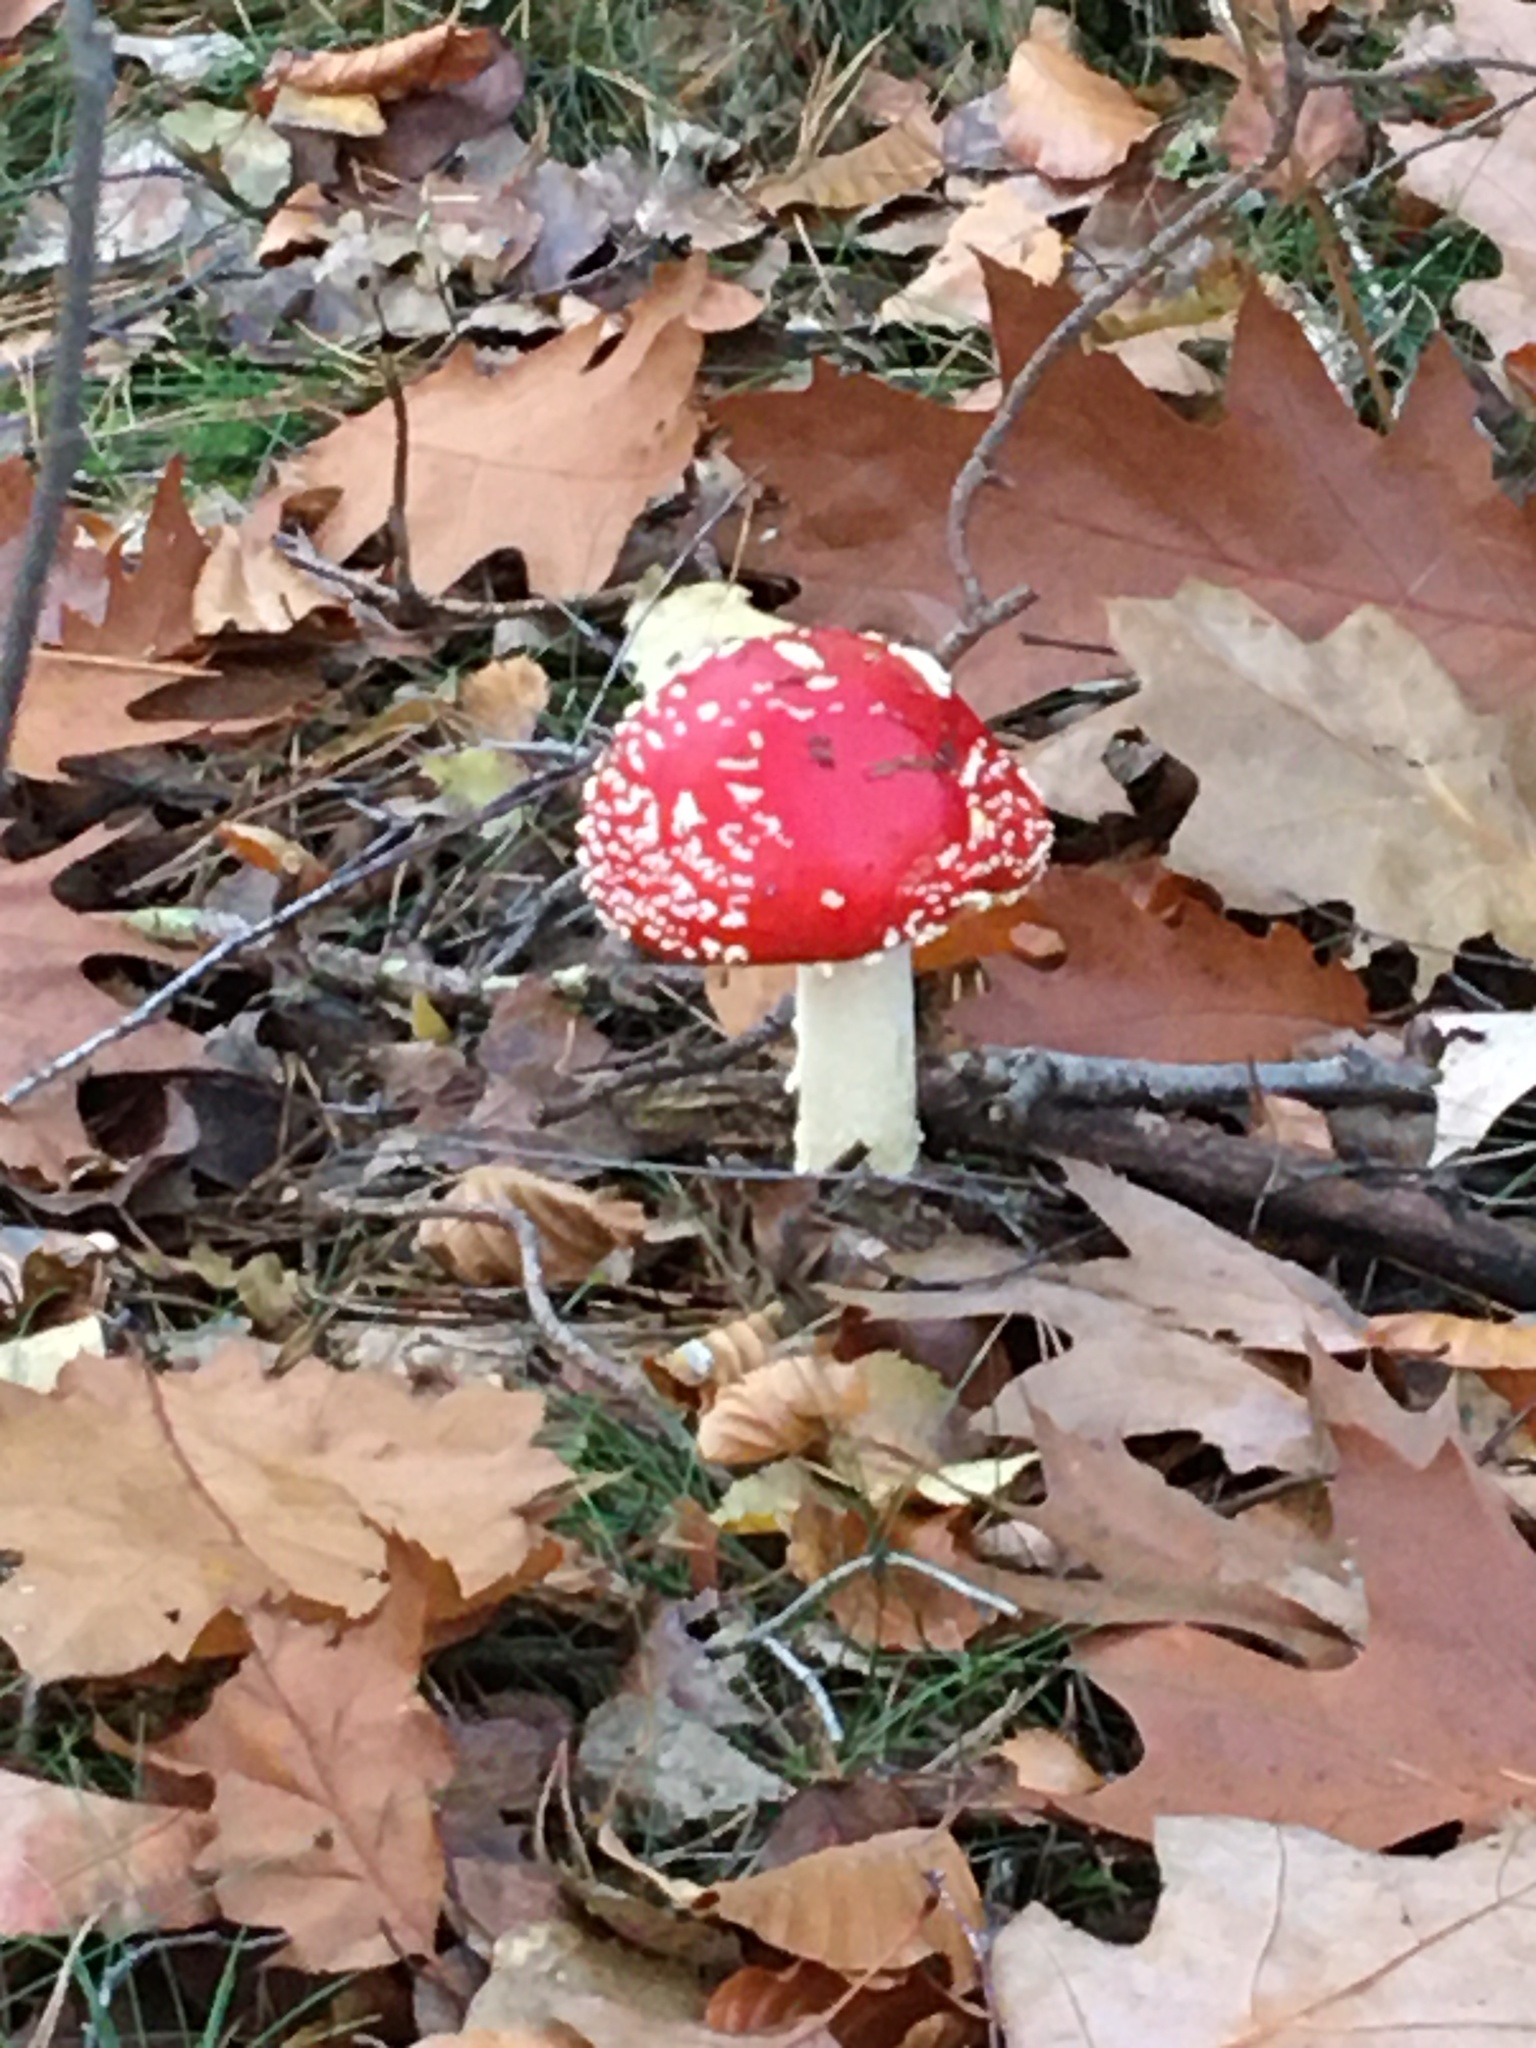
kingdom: Fungi
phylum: Basidiomycota
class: Agaricomycetes
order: Agaricales
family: Amanitaceae
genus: Amanita
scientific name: Amanita muscaria
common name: Fly agaric
